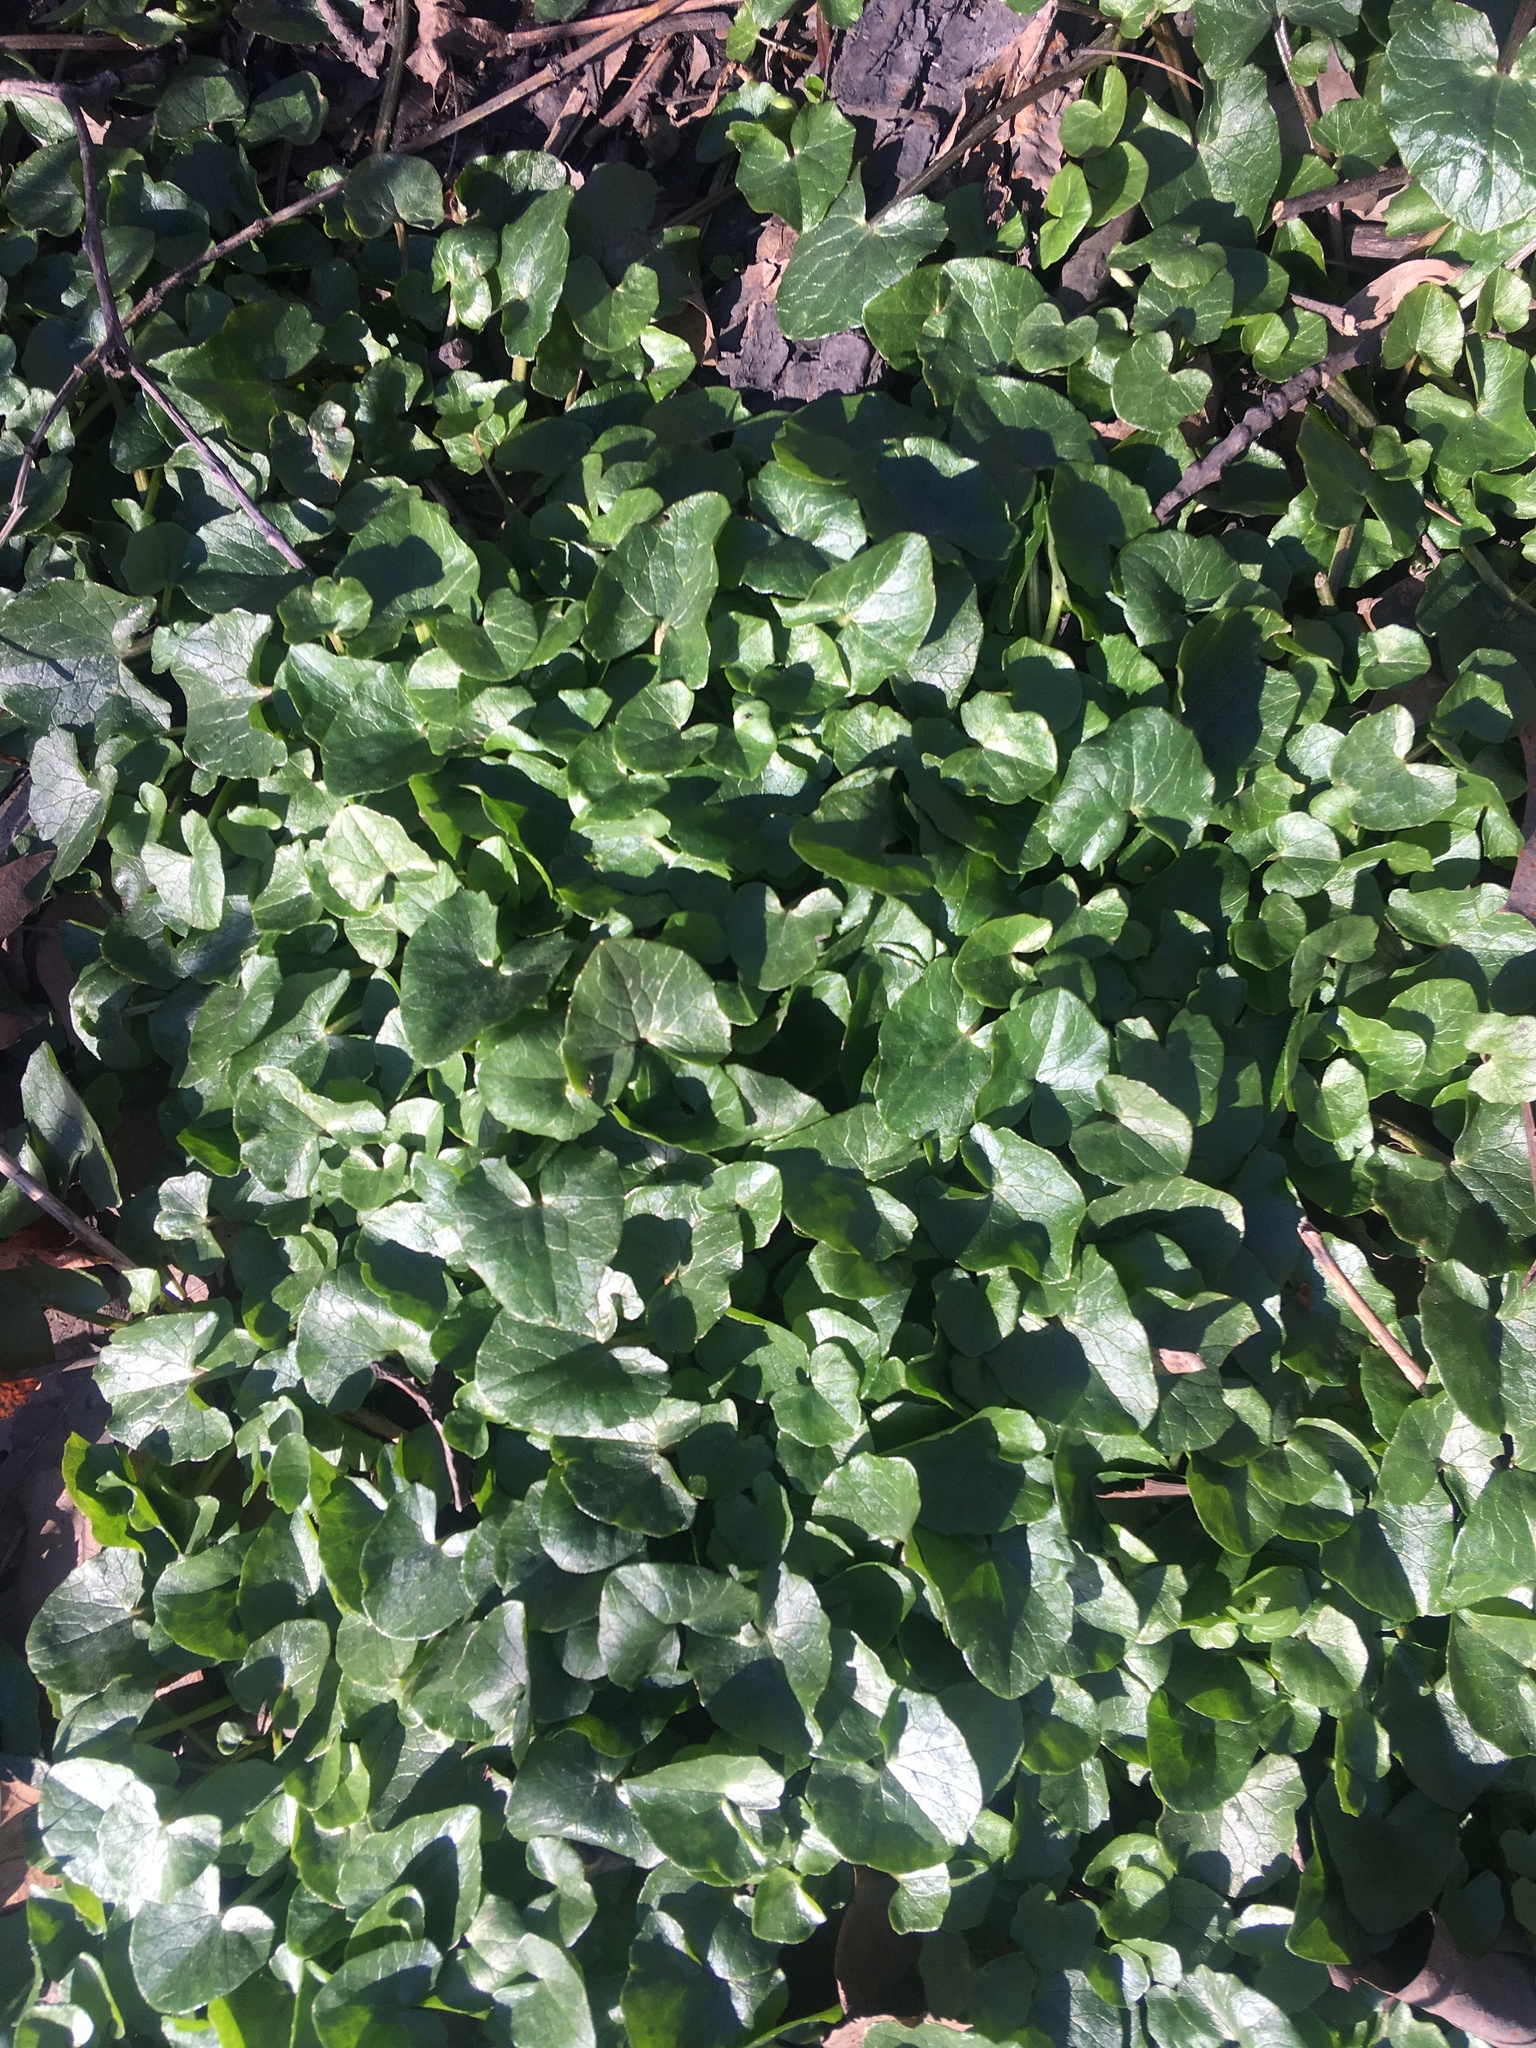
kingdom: Plantae
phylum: Tracheophyta
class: Magnoliopsida
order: Ranunculales
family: Ranunculaceae
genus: Ficaria
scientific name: Ficaria verna
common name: Lesser celandine
